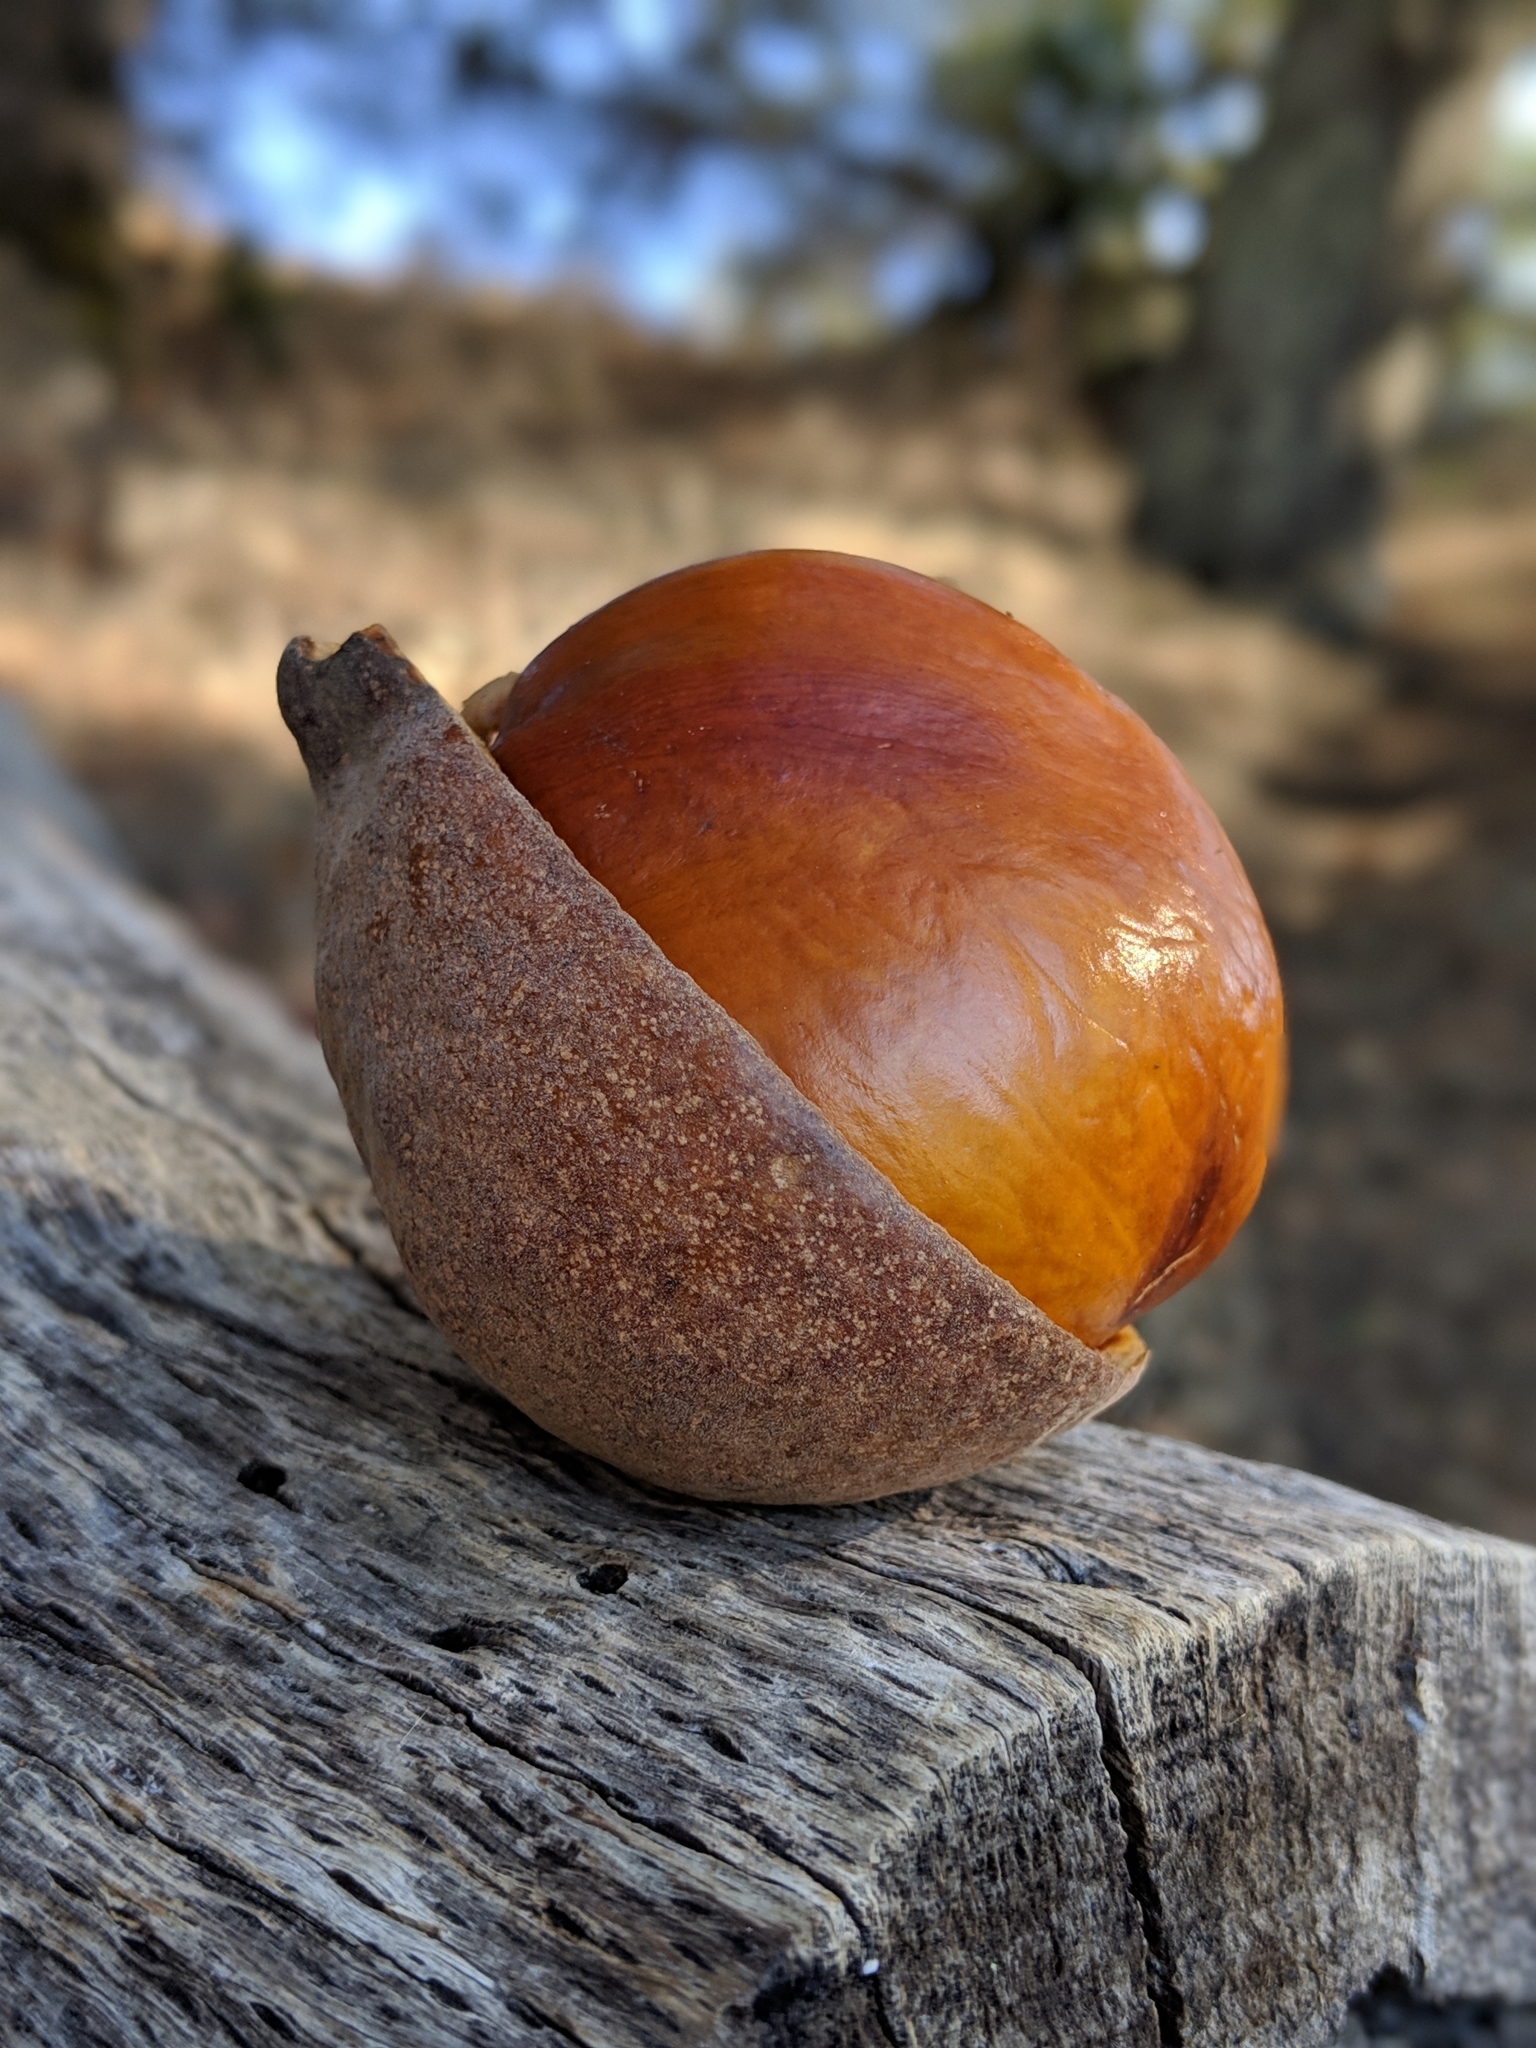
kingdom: Plantae
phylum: Tracheophyta
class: Magnoliopsida
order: Sapindales
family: Sapindaceae
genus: Aesculus
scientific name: Aesculus californica
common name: California buckeye
